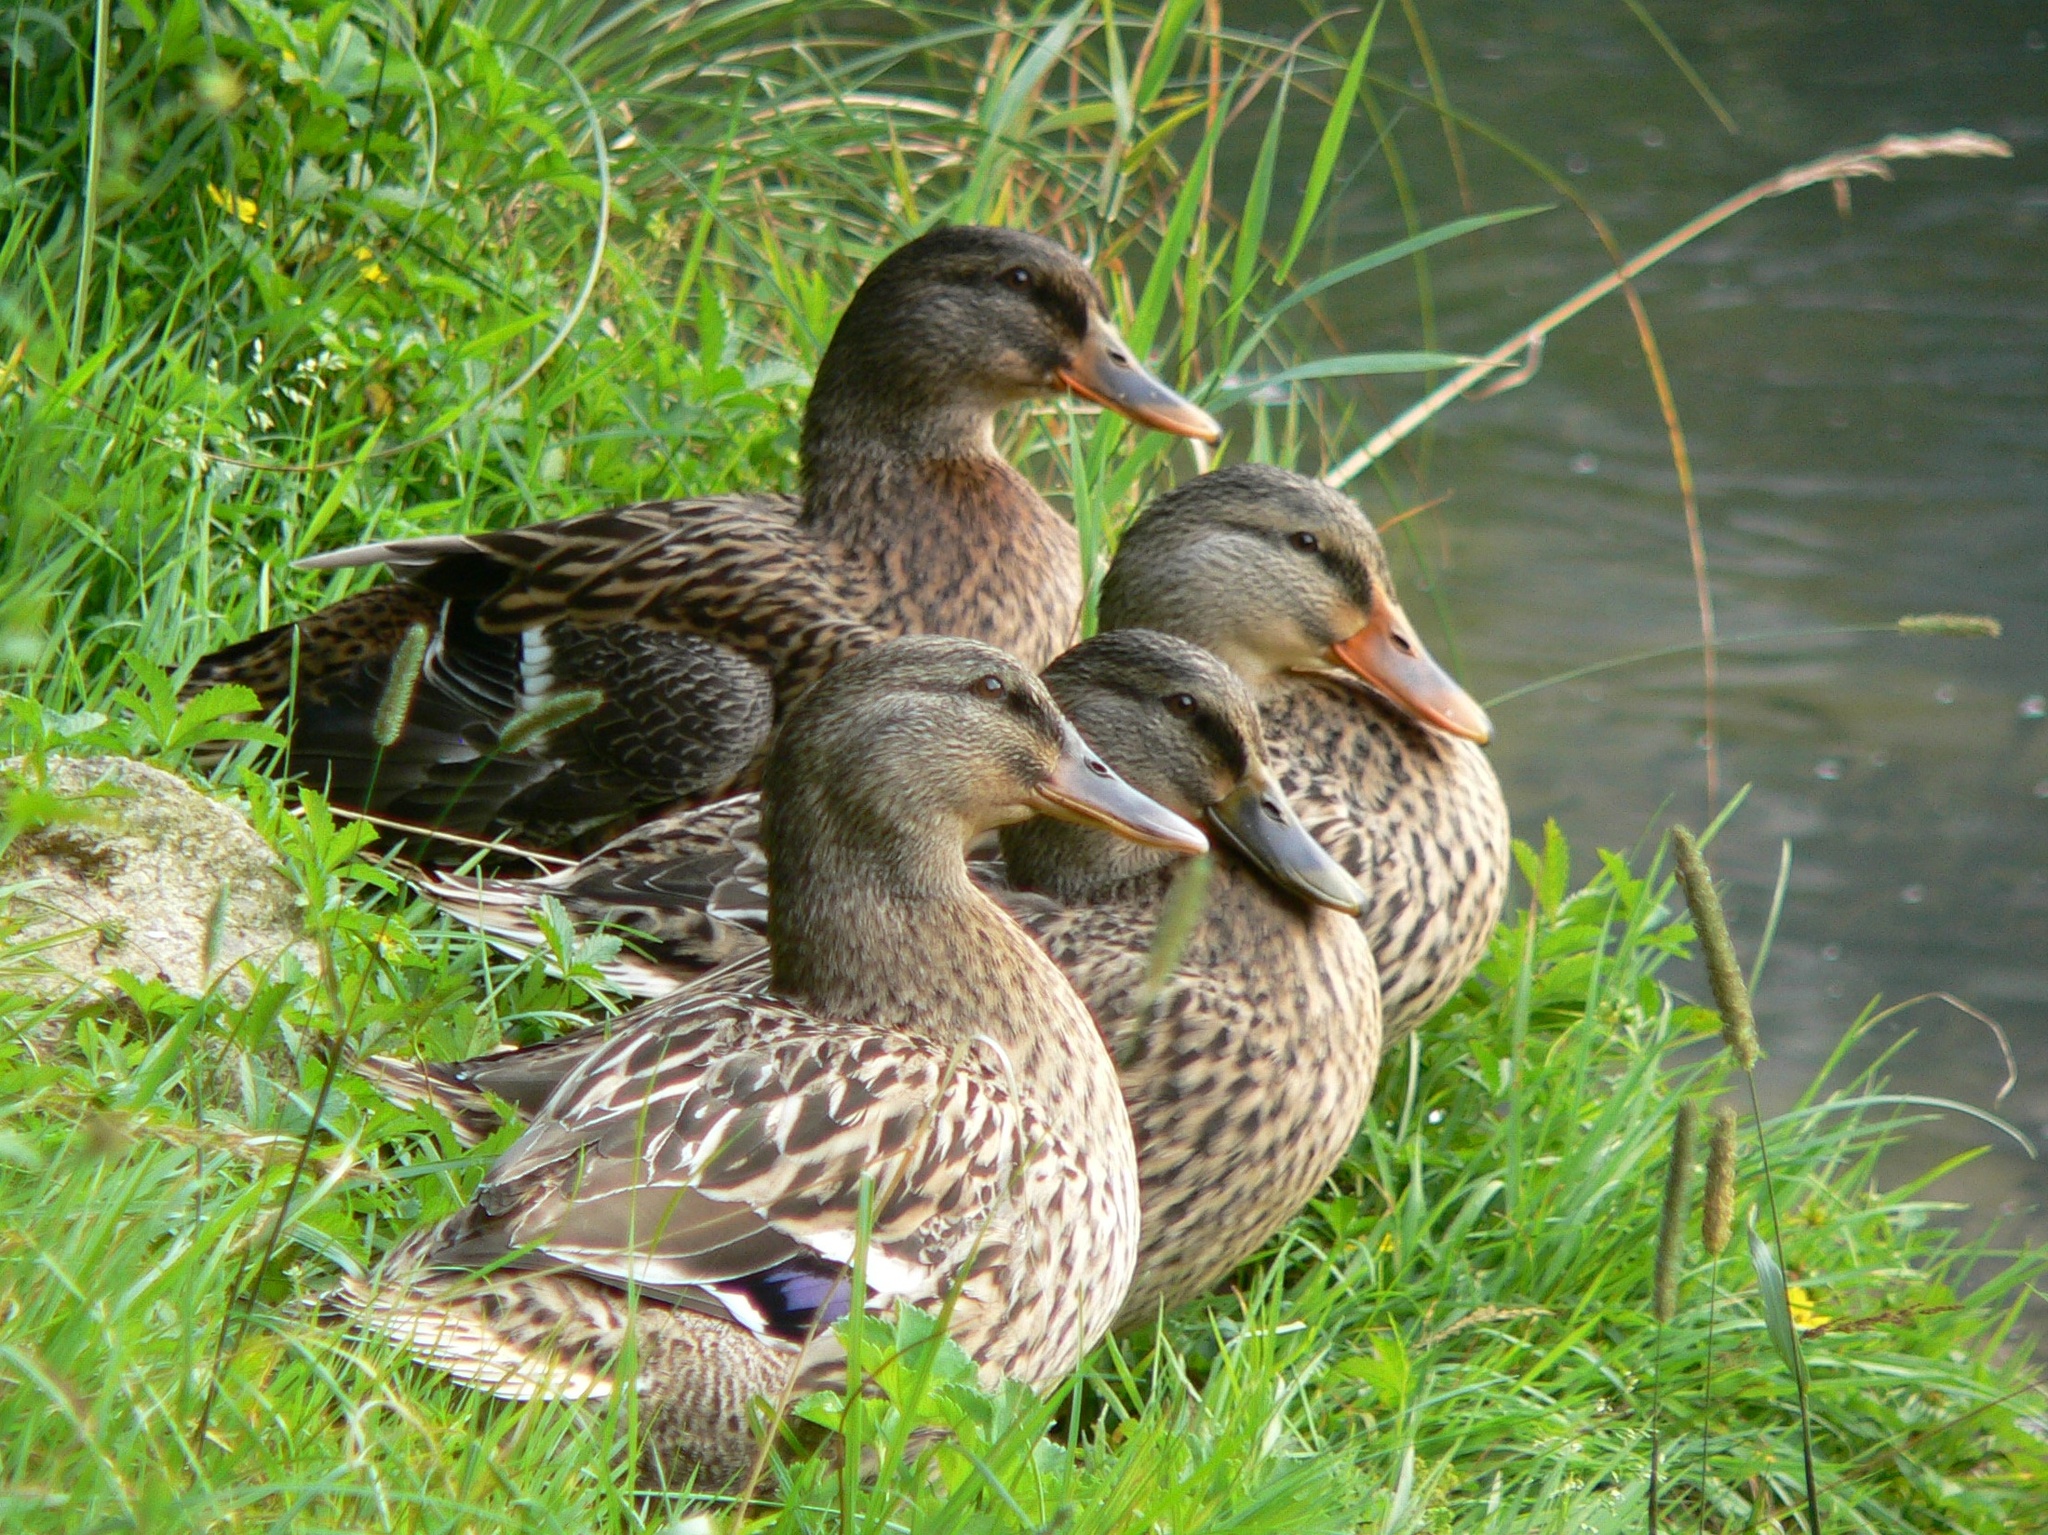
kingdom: Animalia
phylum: Chordata
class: Aves
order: Anseriformes
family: Anatidae
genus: Anas
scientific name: Anas platyrhynchos
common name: Mallard
